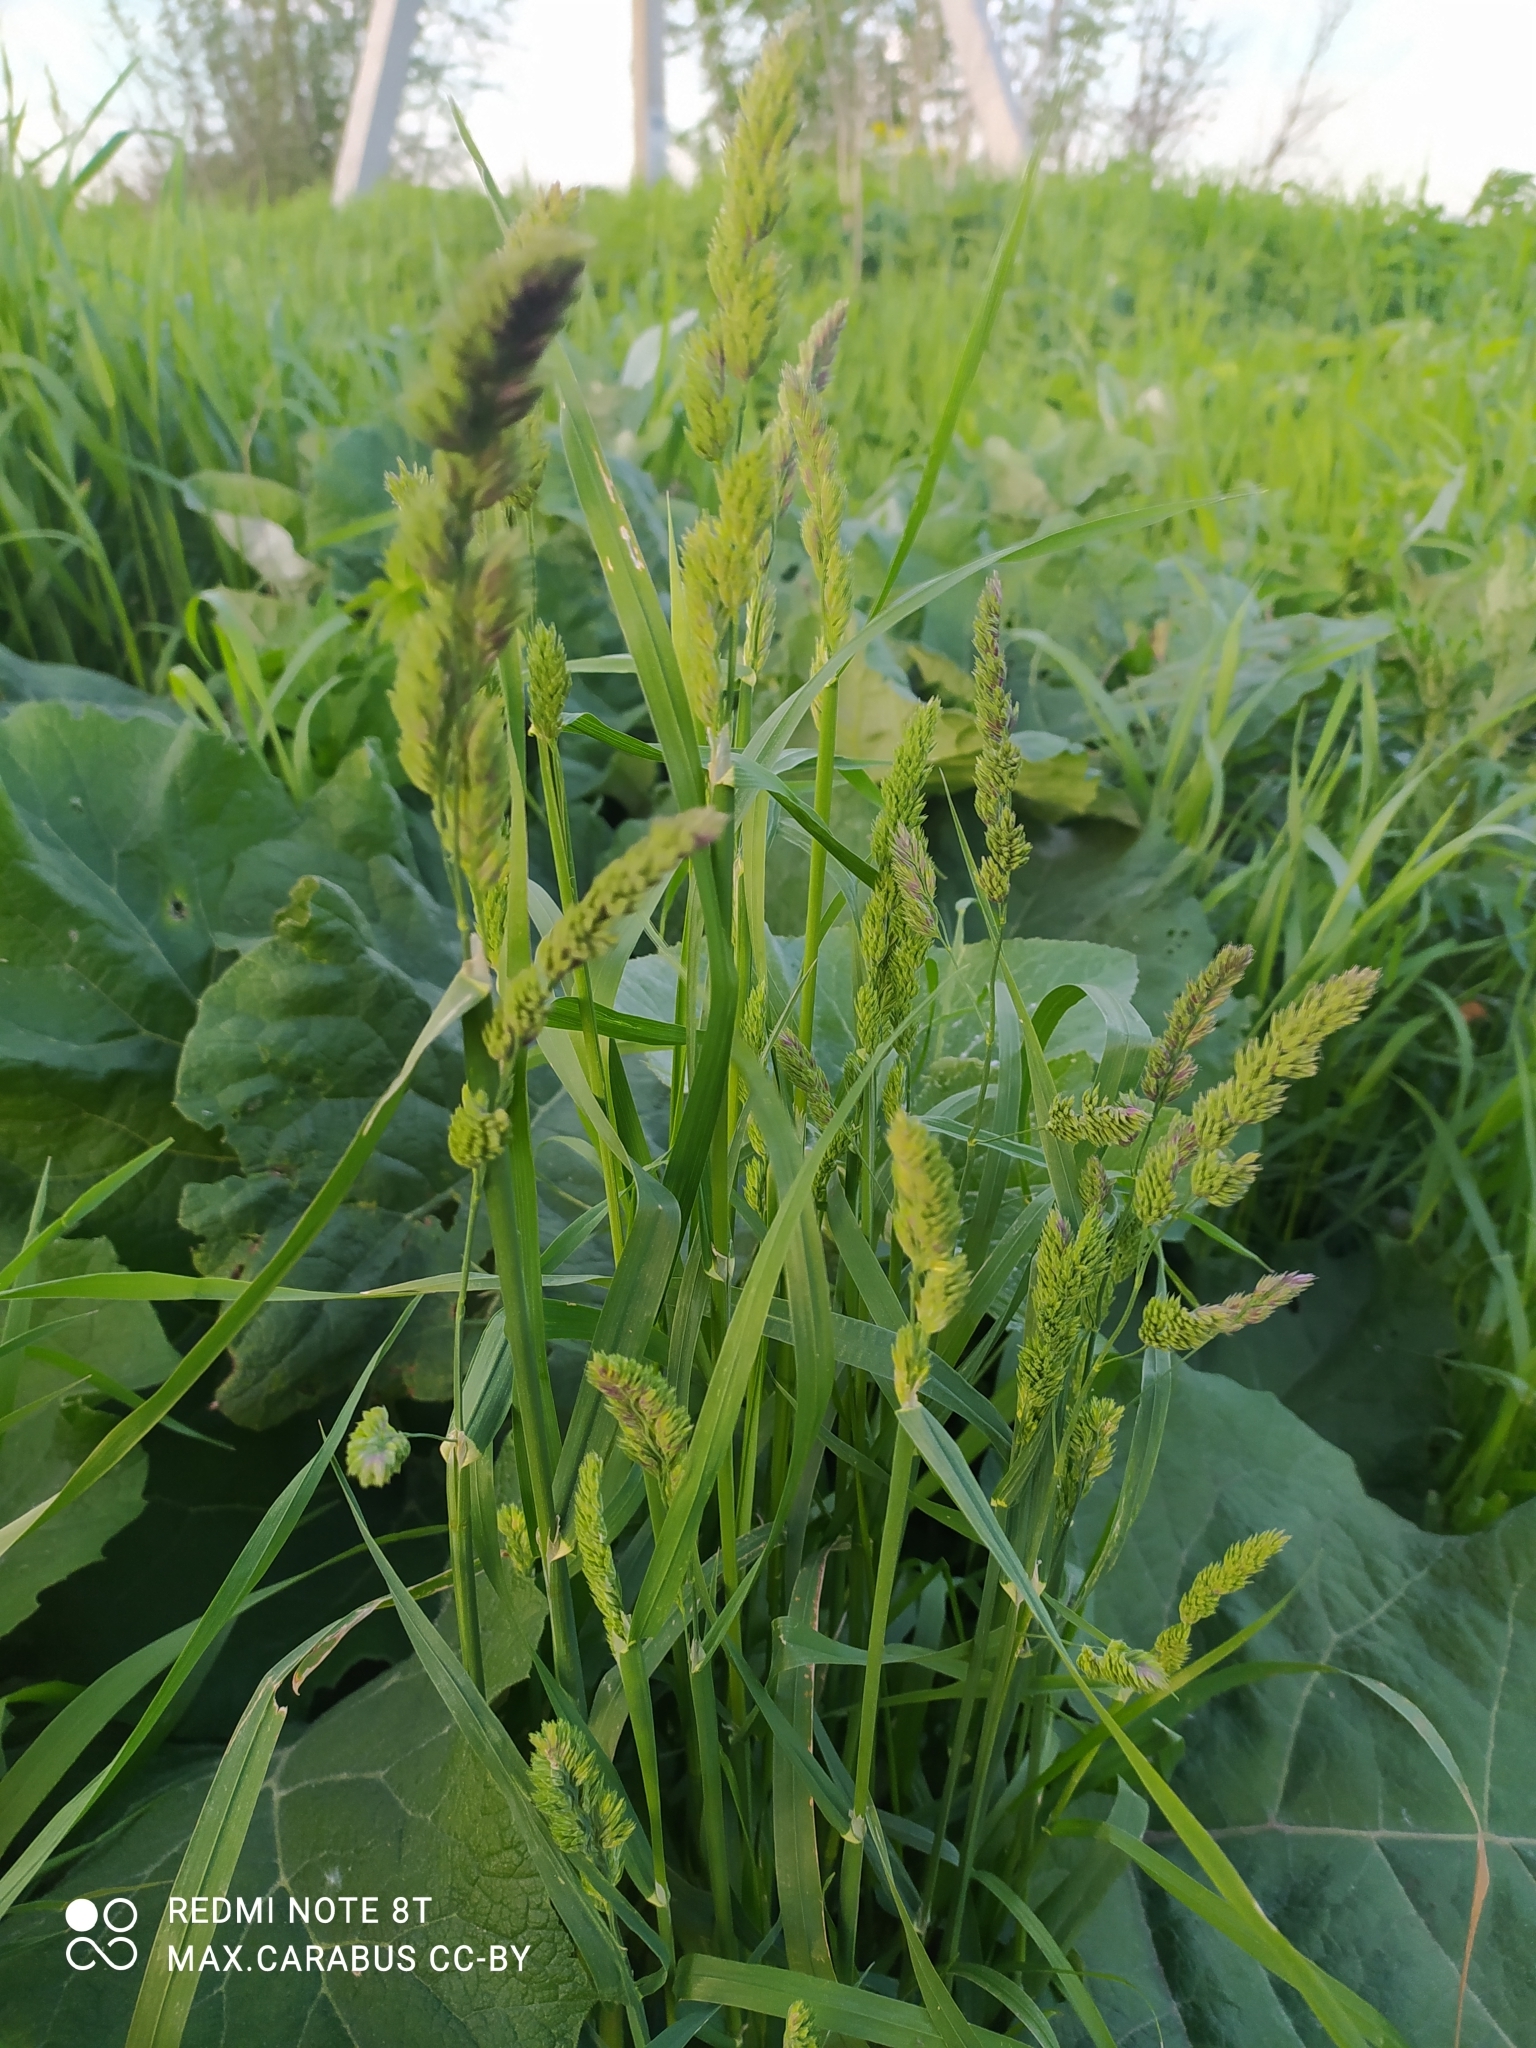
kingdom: Plantae
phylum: Tracheophyta
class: Liliopsida
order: Poales
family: Poaceae
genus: Dactylis
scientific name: Dactylis glomerata
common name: Orchardgrass
